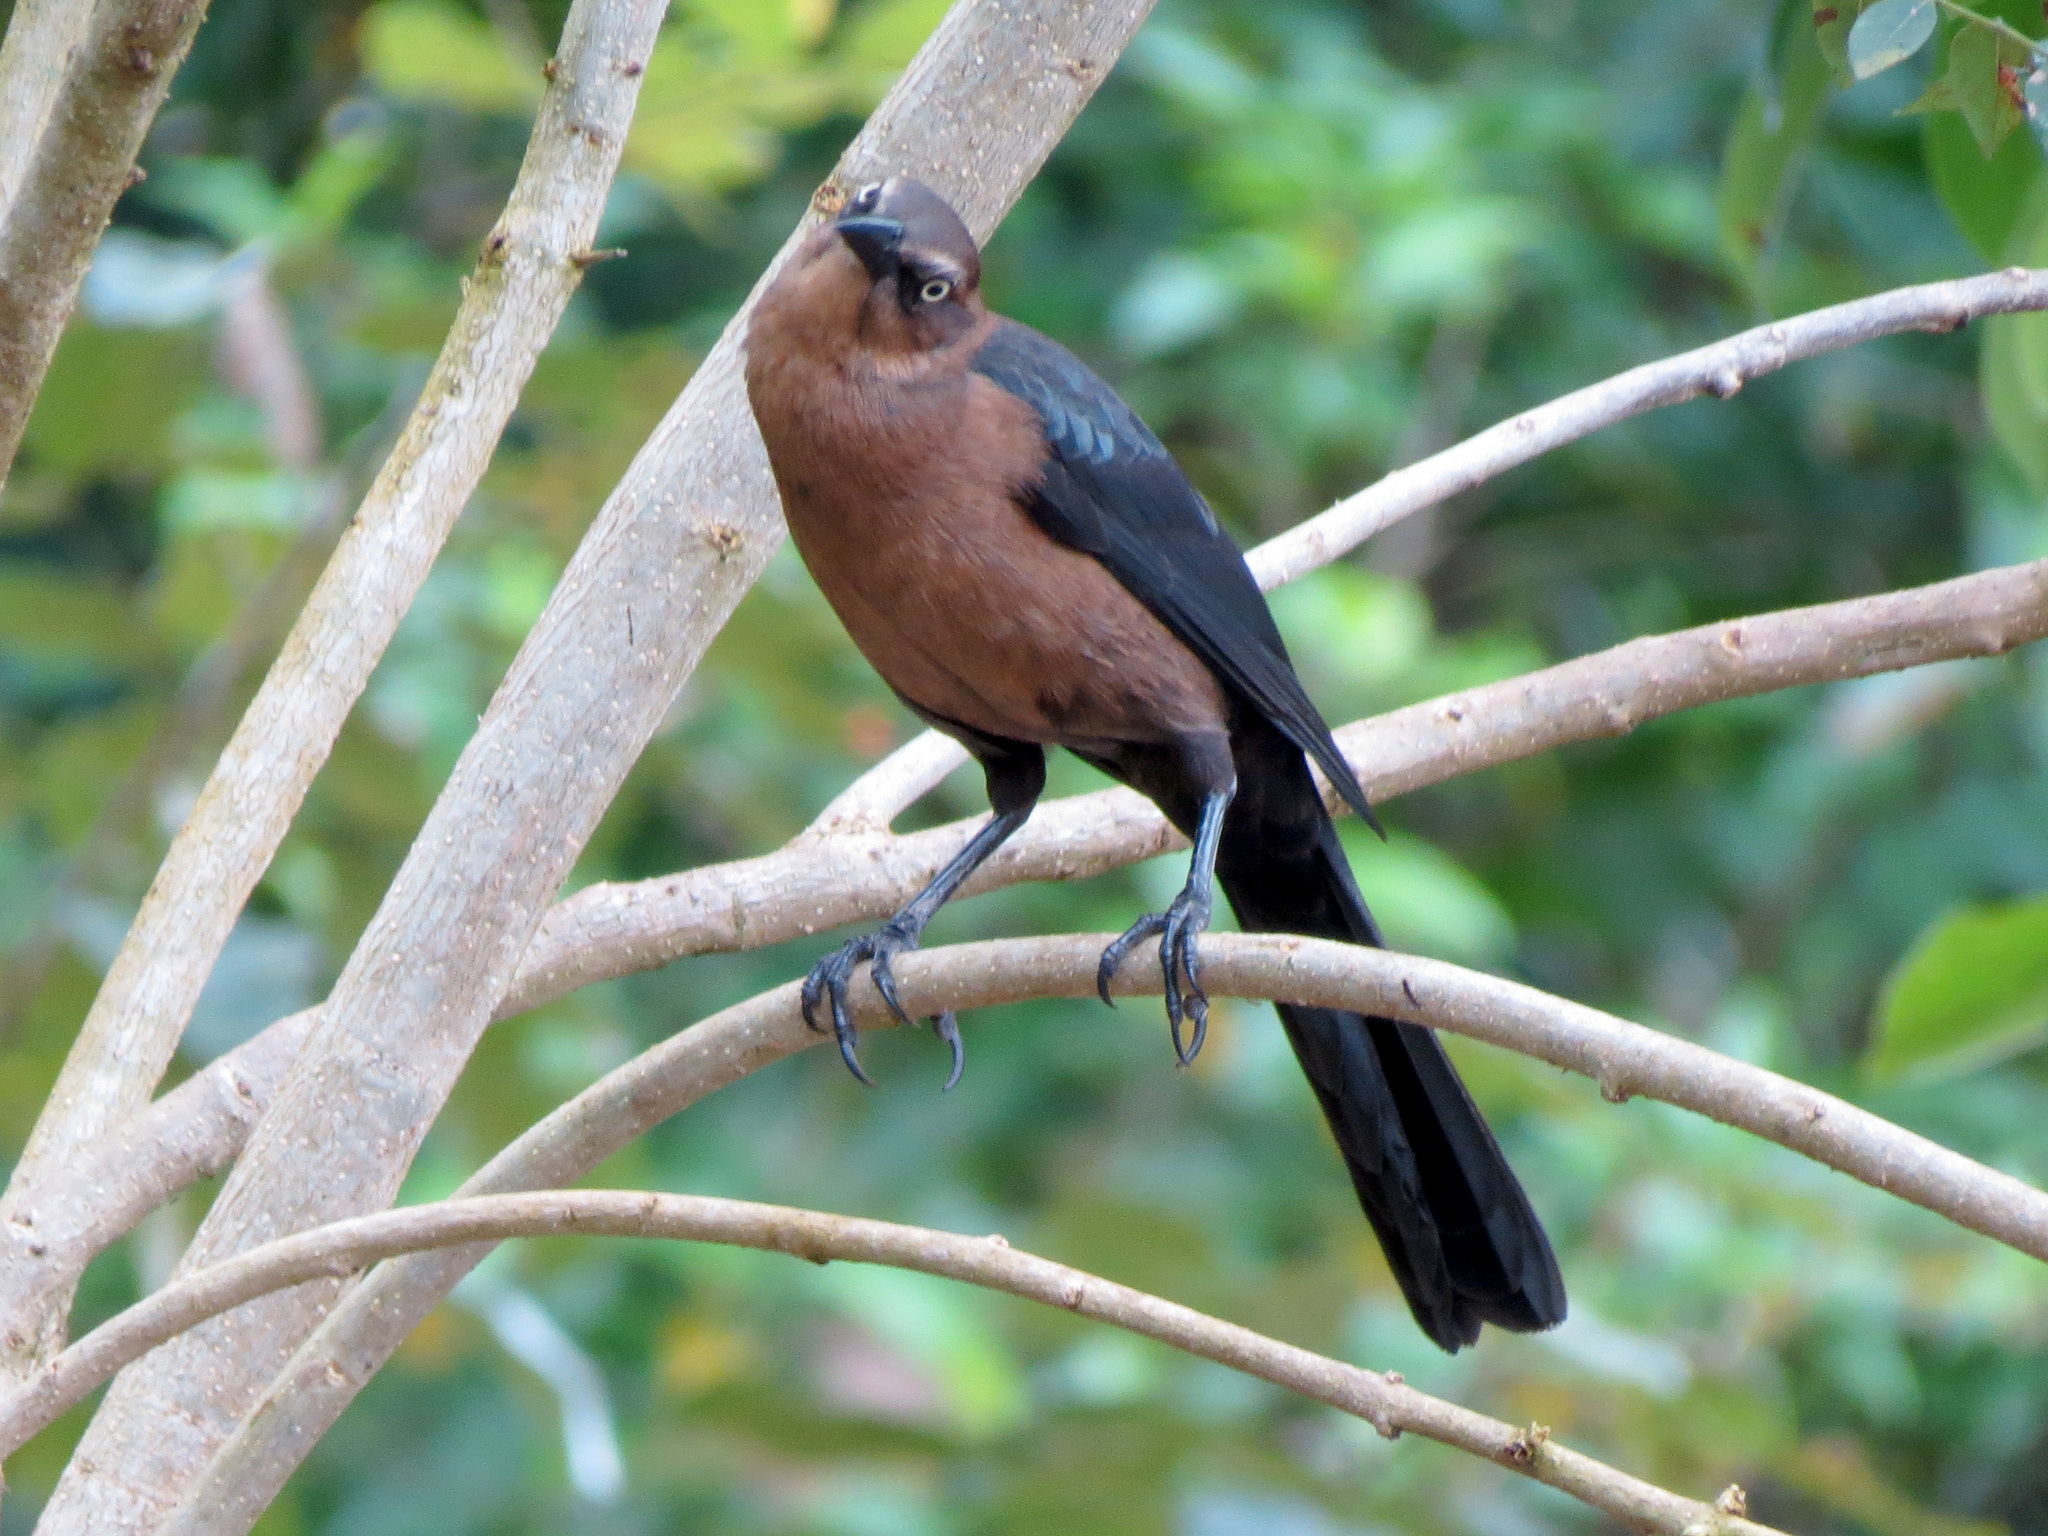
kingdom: Animalia
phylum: Chordata
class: Aves
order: Passeriformes
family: Icteridae
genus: Quiscalus
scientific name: Quiscalus mexicanus
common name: Great-tailed grackle
